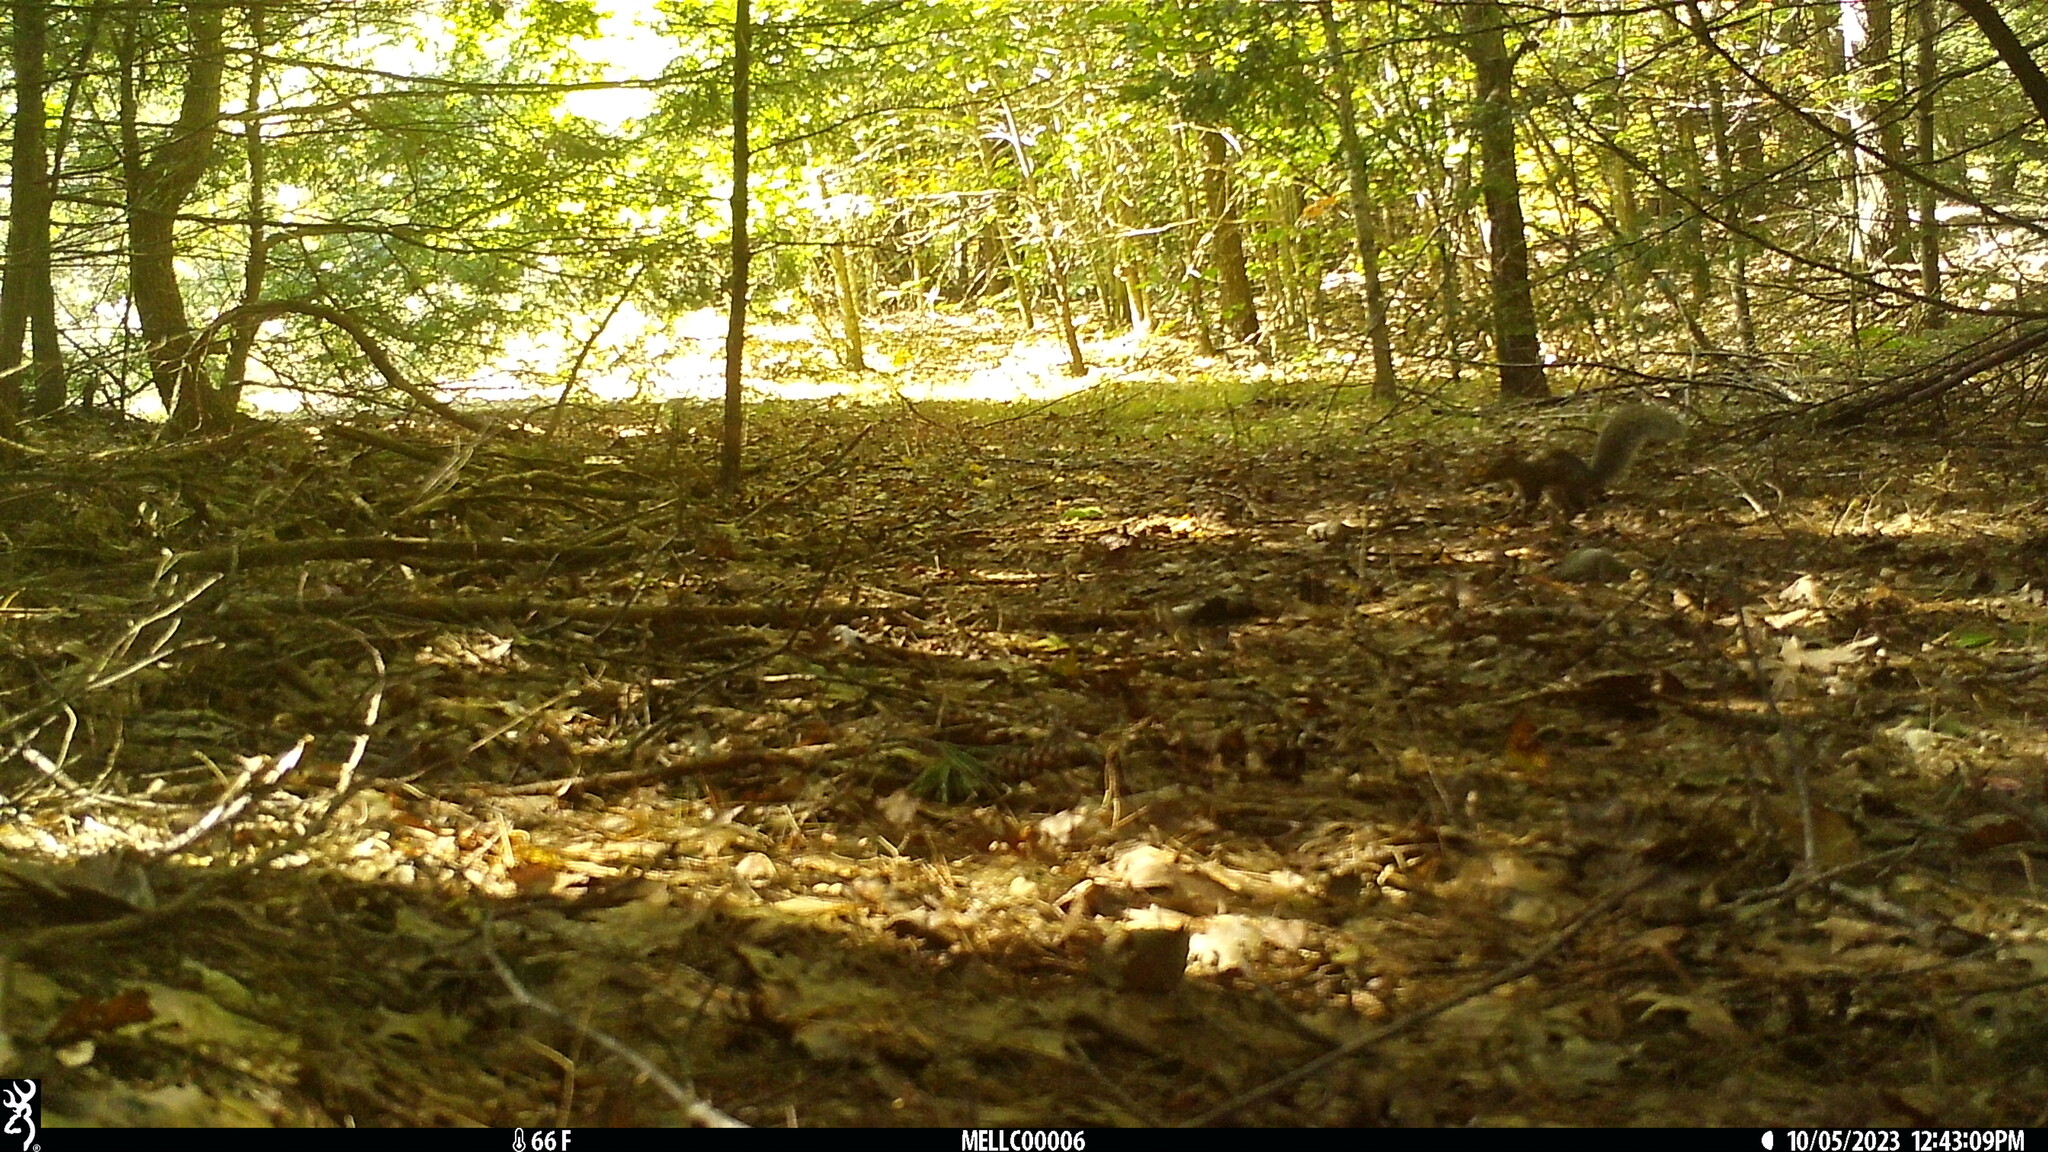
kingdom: Animalia
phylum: Chordata
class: Mammalia
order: Rodentia
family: Sciuridae
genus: Sciurus
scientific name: Sciurus carolinensis
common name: Eastern gray squirrel
